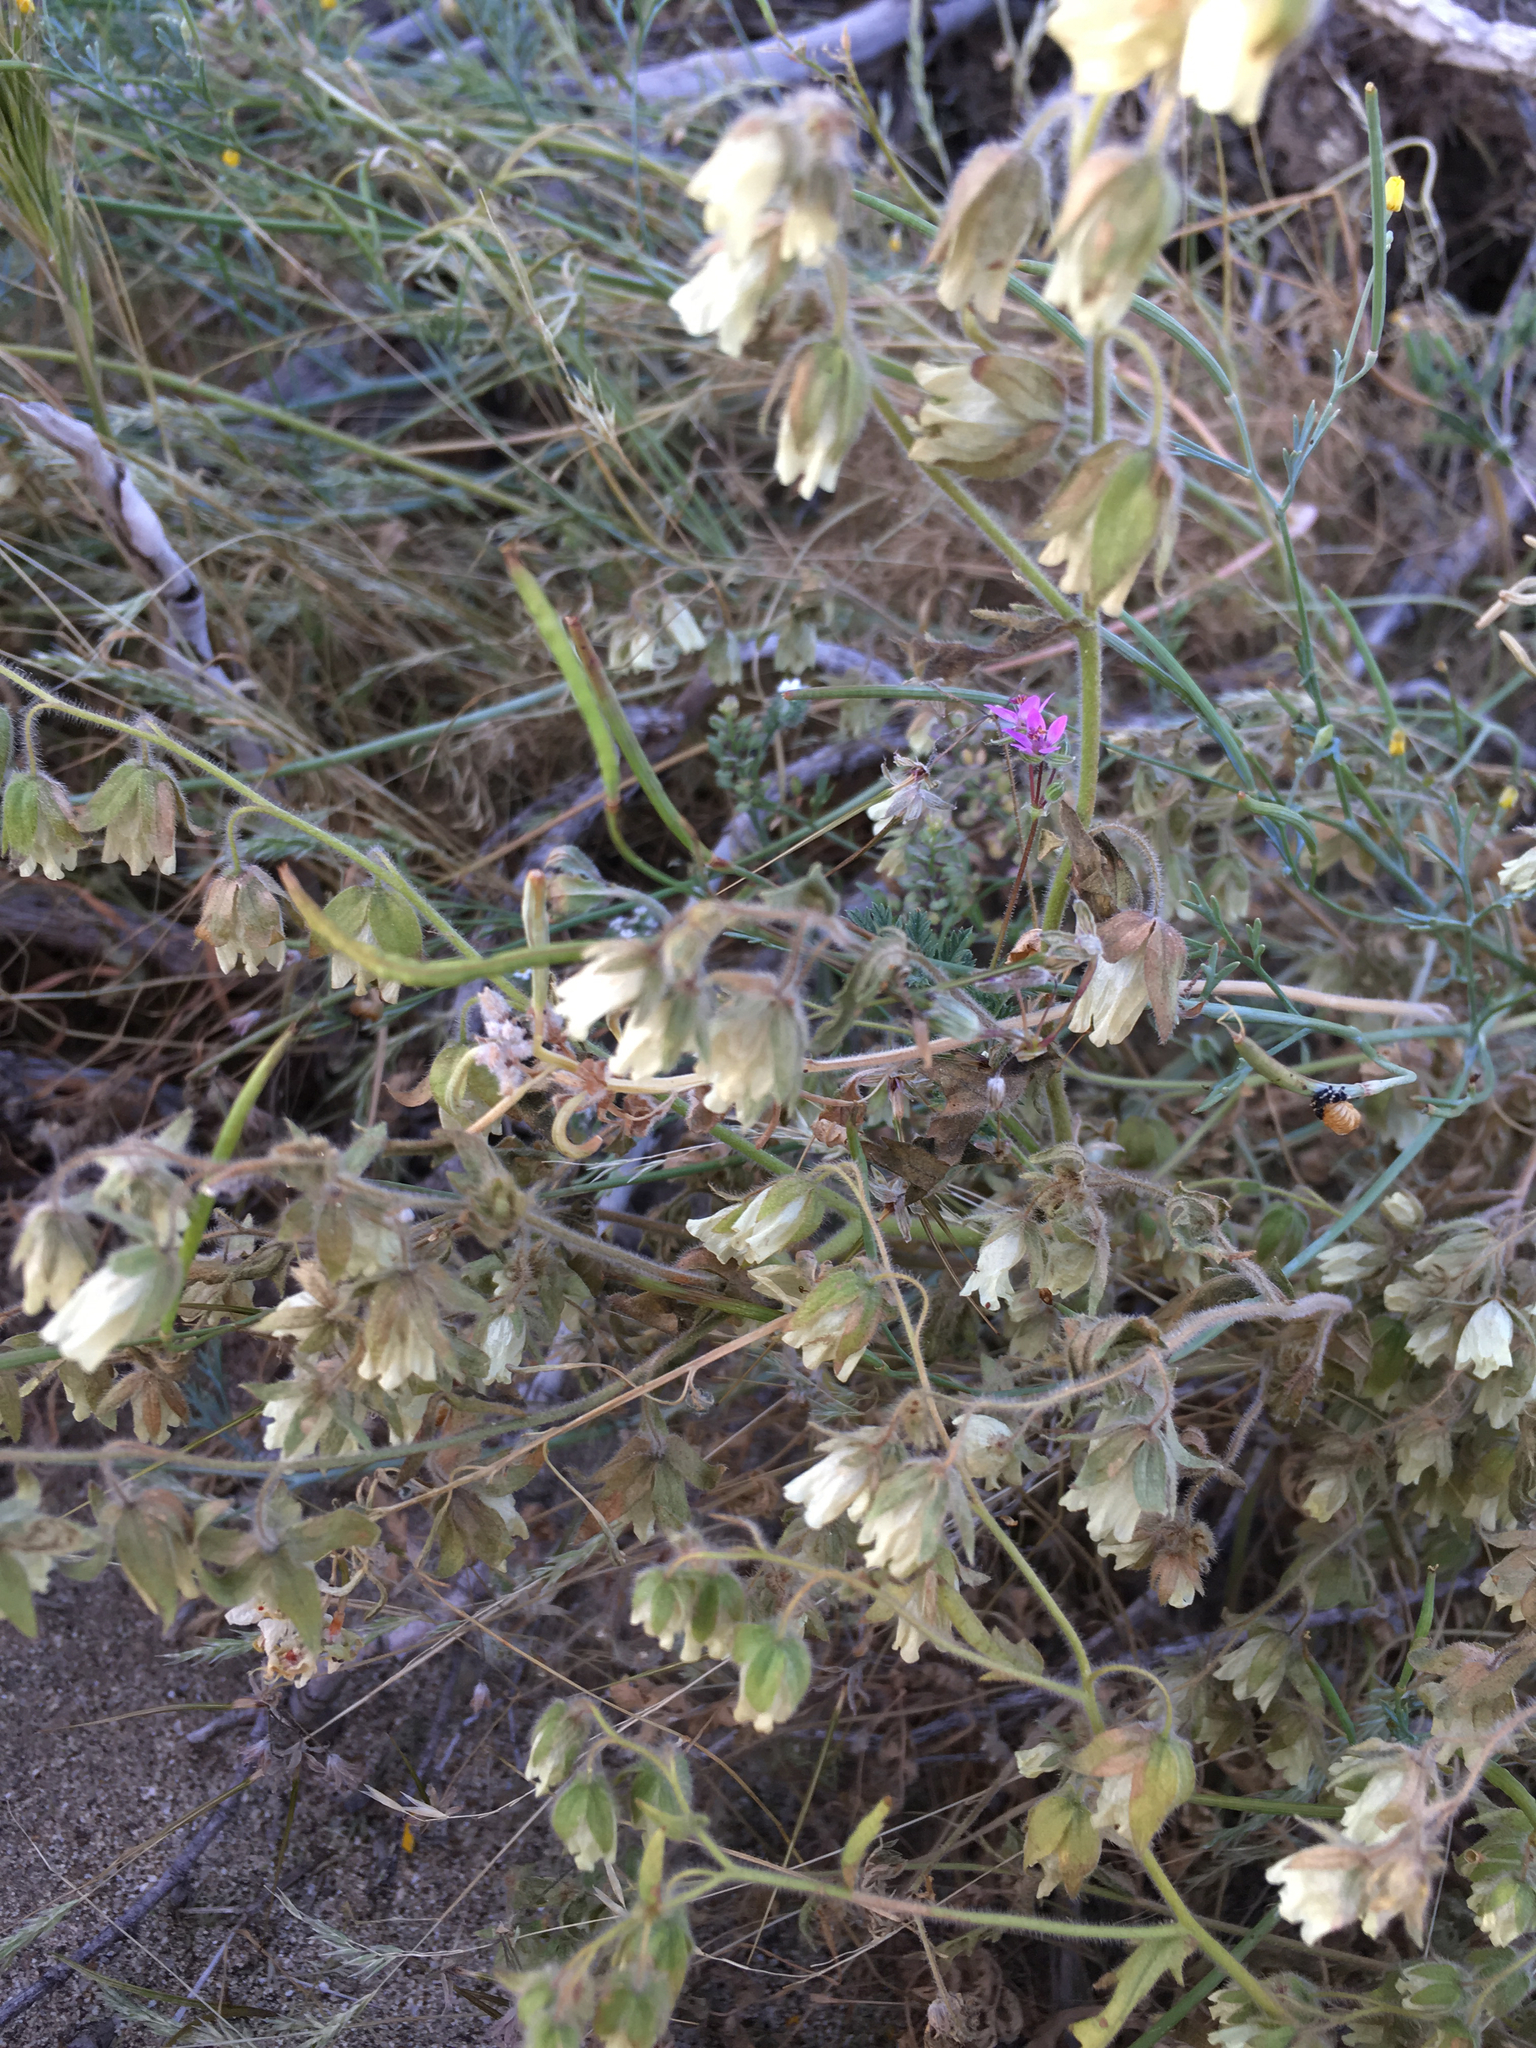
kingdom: Plantae
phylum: Tracheophyta
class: Magnoliopsida
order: Boraginales
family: Hydrophyllaceae
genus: Emmenanthe
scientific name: Emmenanthe penduliflora
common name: Whispering-bells
